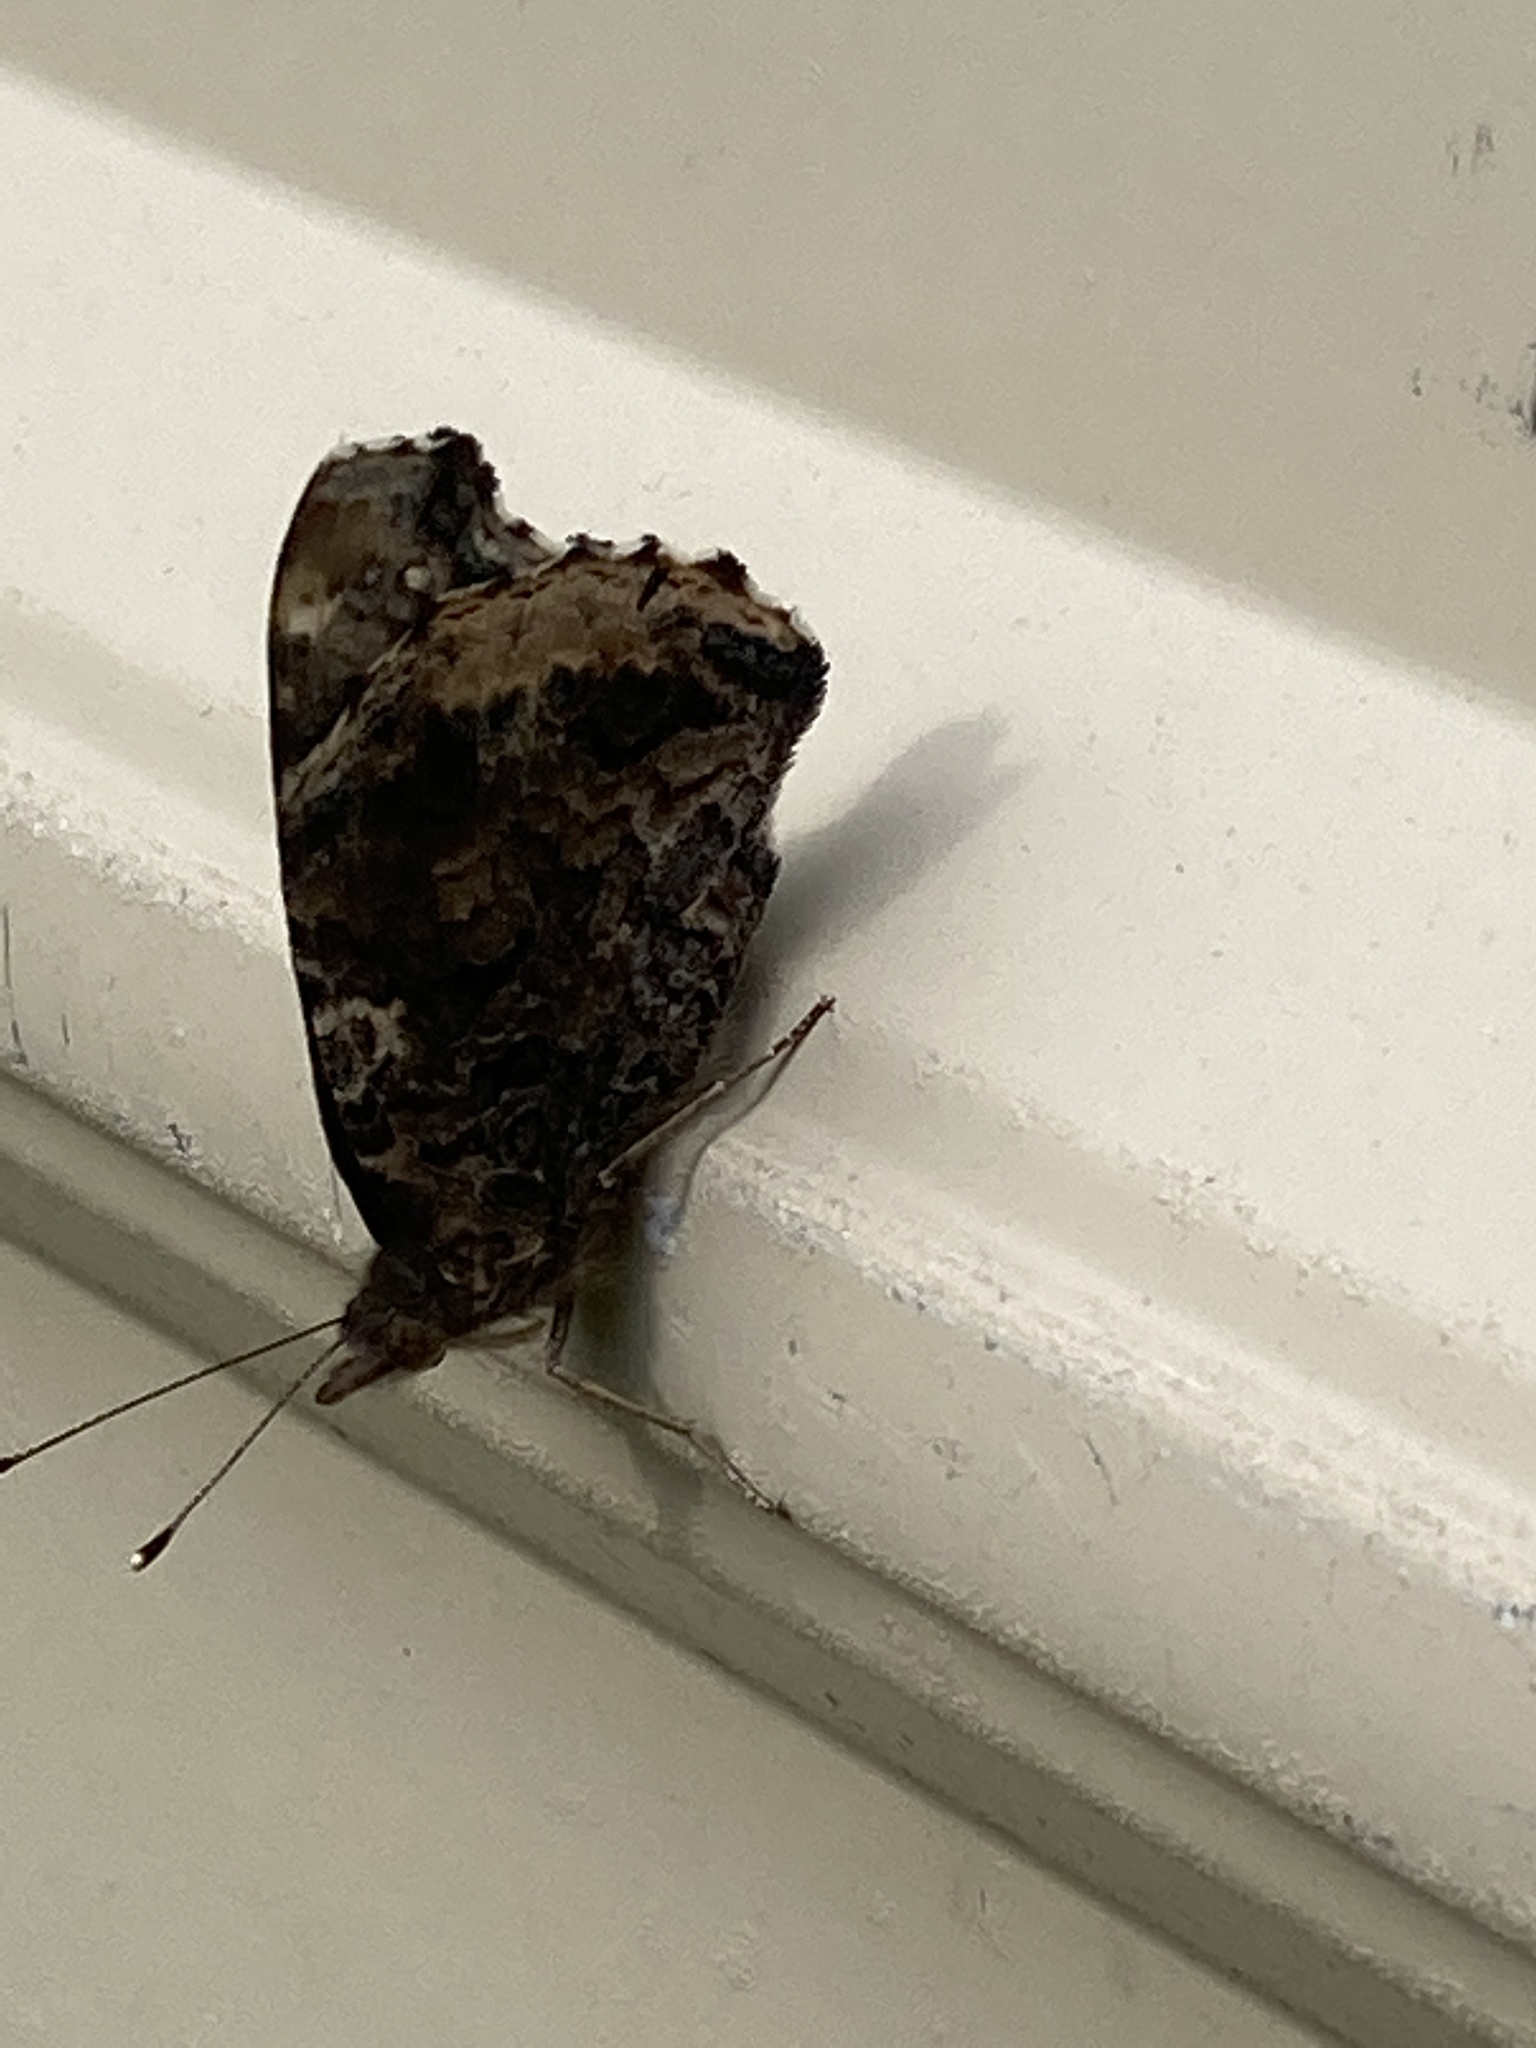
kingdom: Animalia
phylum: Arthropoda
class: Insecta
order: Lepidoptera
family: Nymphalidae
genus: Vanessa
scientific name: Vanessa atalanta
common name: Red admiral
